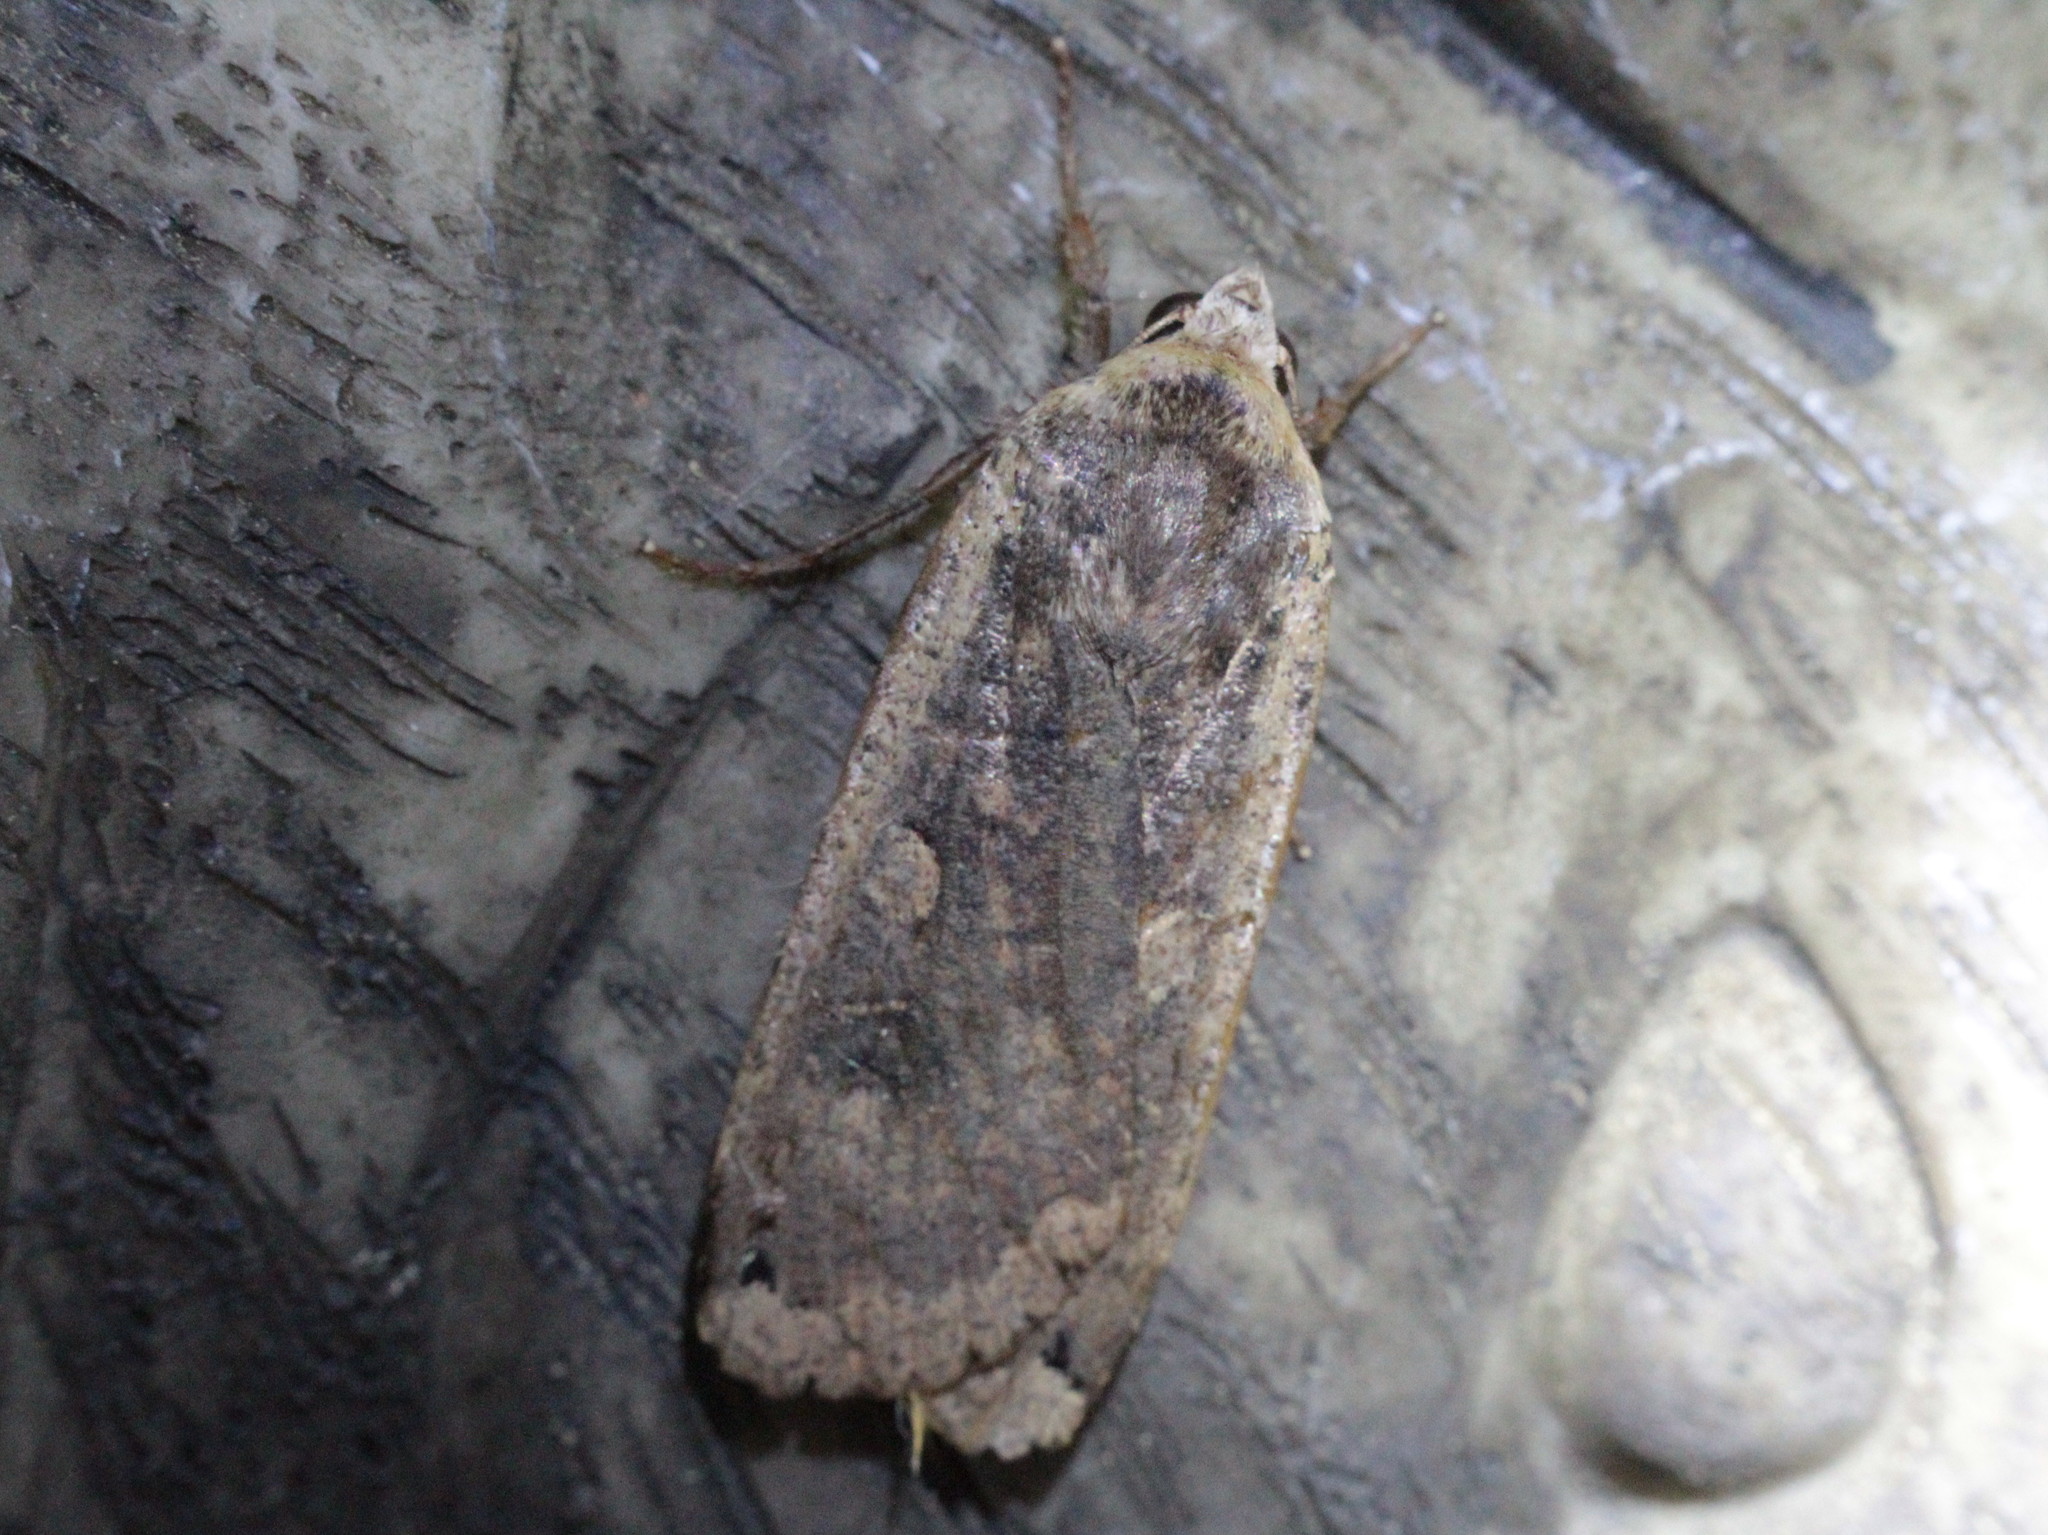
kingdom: Animalia
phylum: Arthropoda
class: Insecta
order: Lepidoptera
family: Noctuidae
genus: Noctua
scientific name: Noctua pronuba
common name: Large yellow underwing
